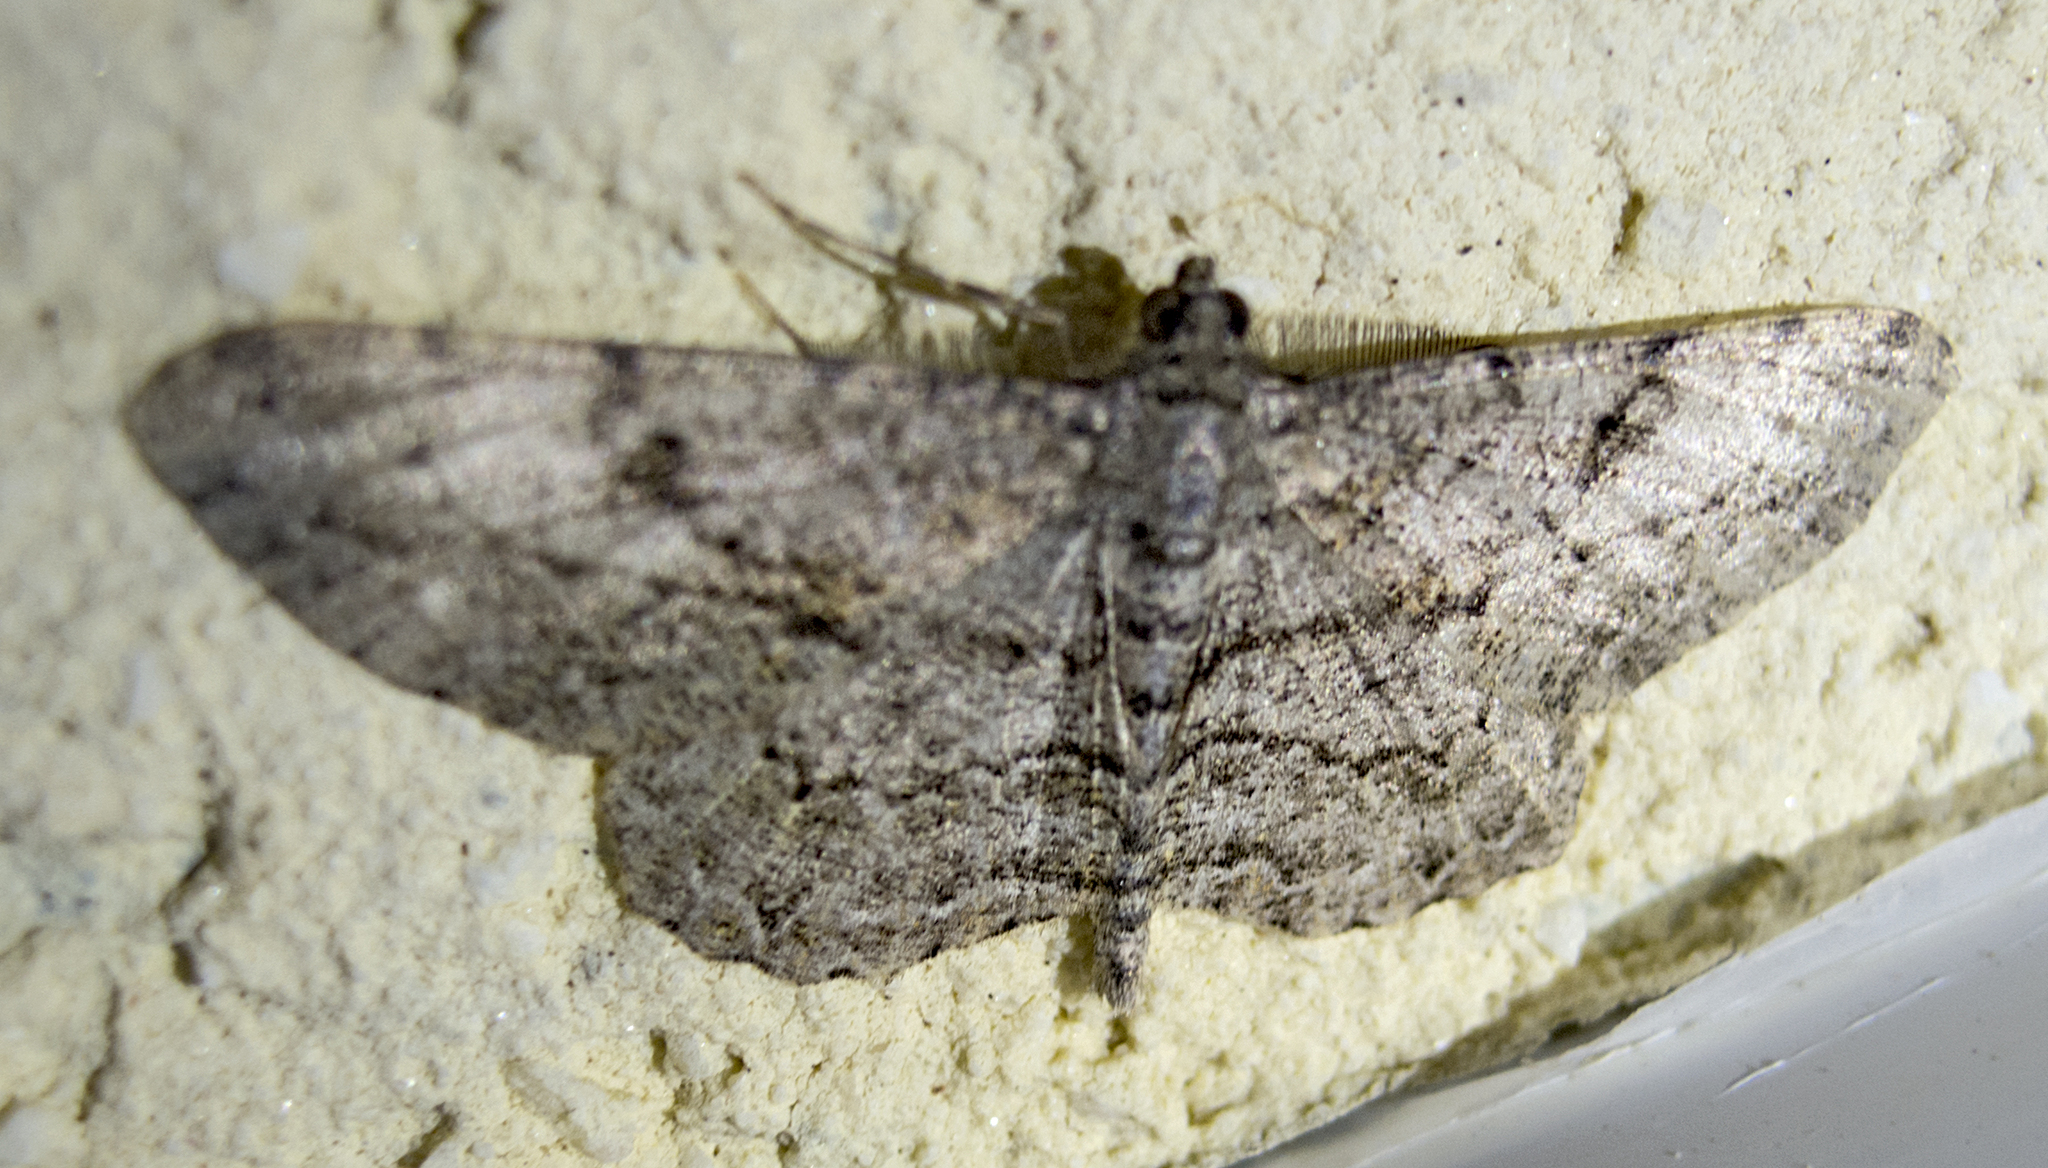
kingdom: Animalia
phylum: Arthropoda
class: Insecta
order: Lepidoptera
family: Geometridae
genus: Peribatodes
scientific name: Peribatodes rhomboidaria
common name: Willow beauty
